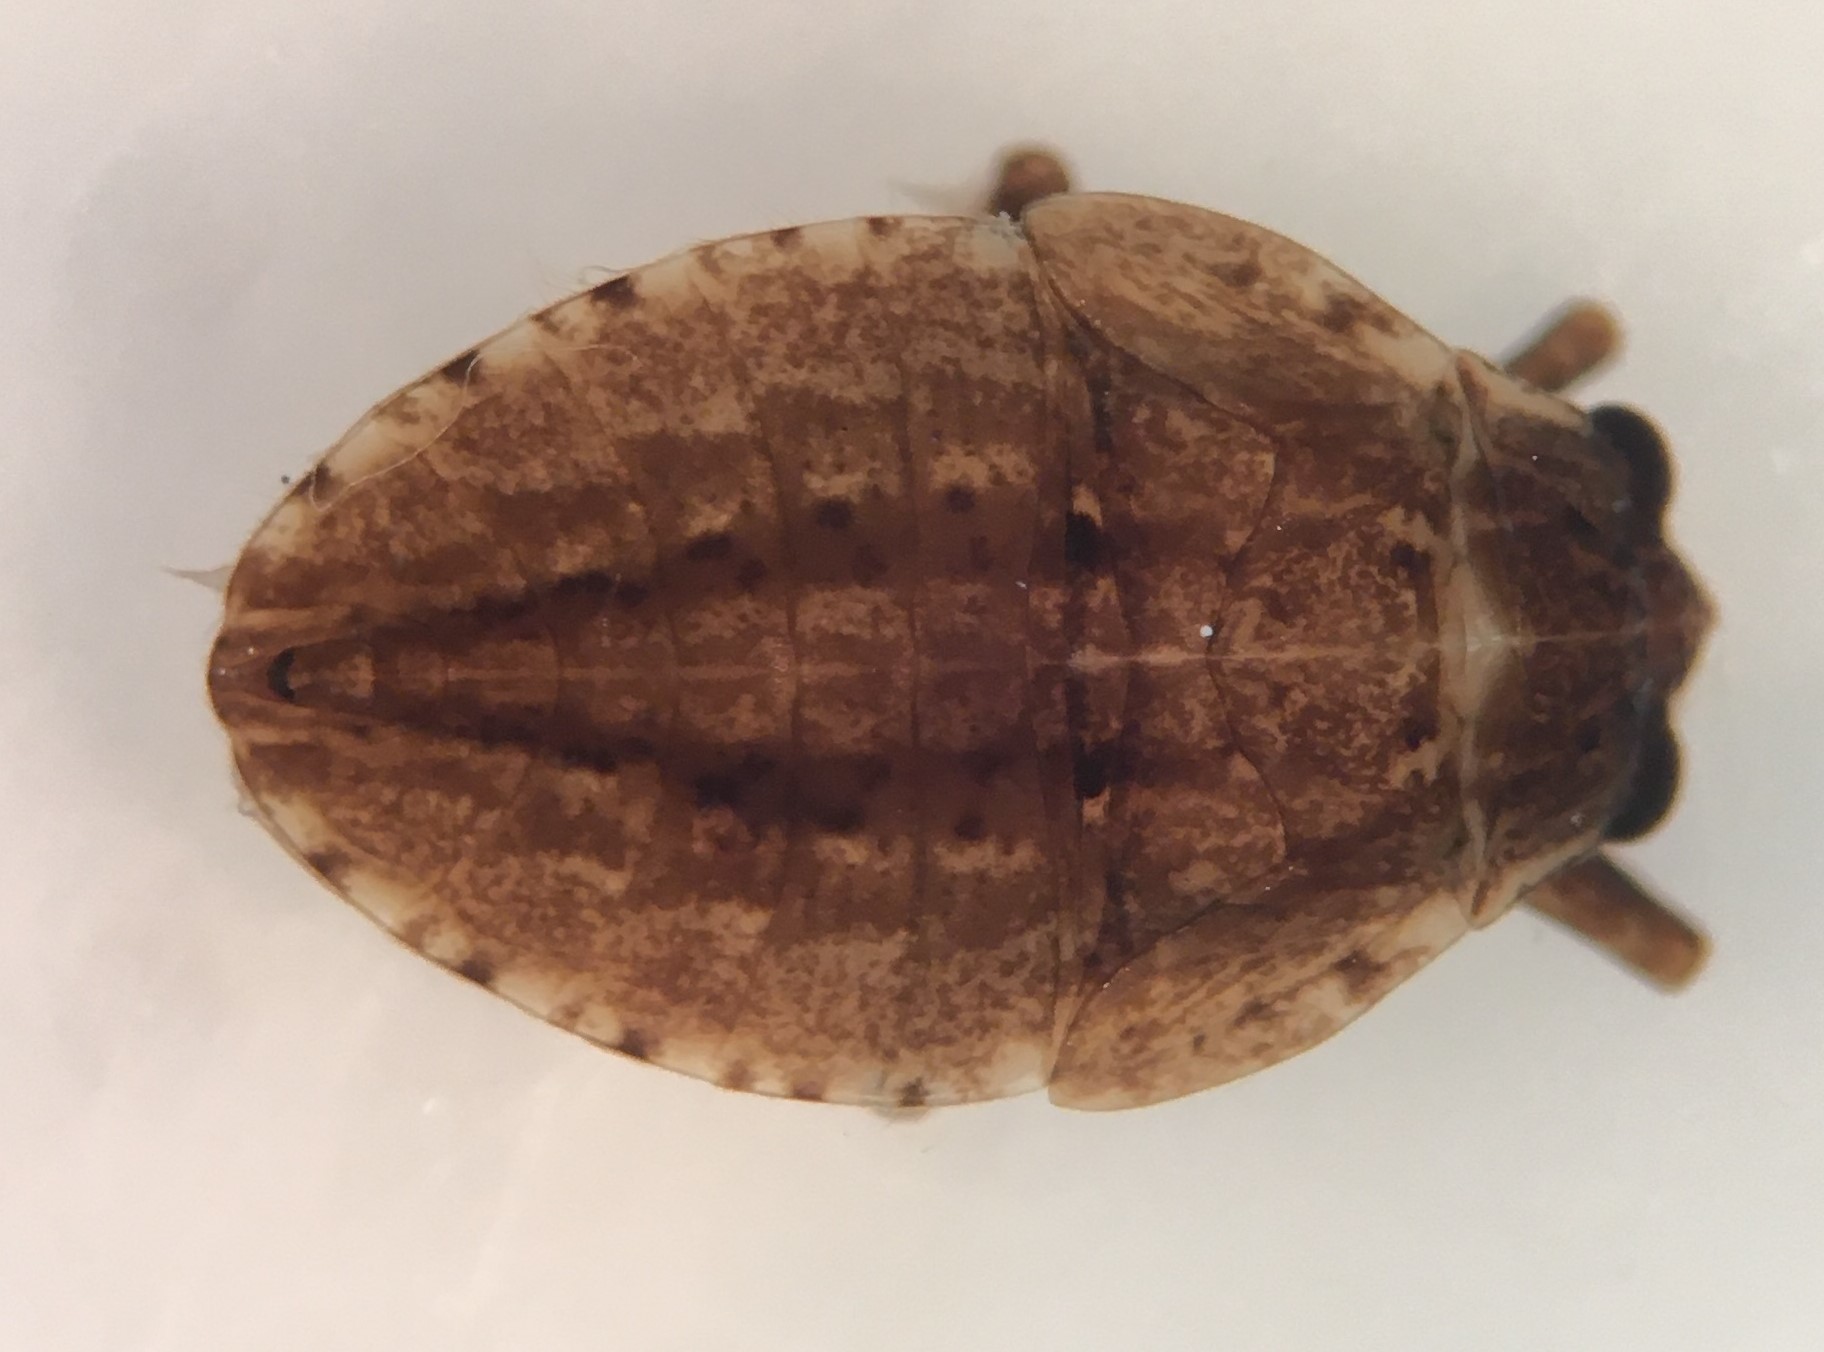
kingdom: Animalia
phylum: Arthropoda
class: Insecta
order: Hemiptera
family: Belostomatidae
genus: Abedus
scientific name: Abedus immaculatus
